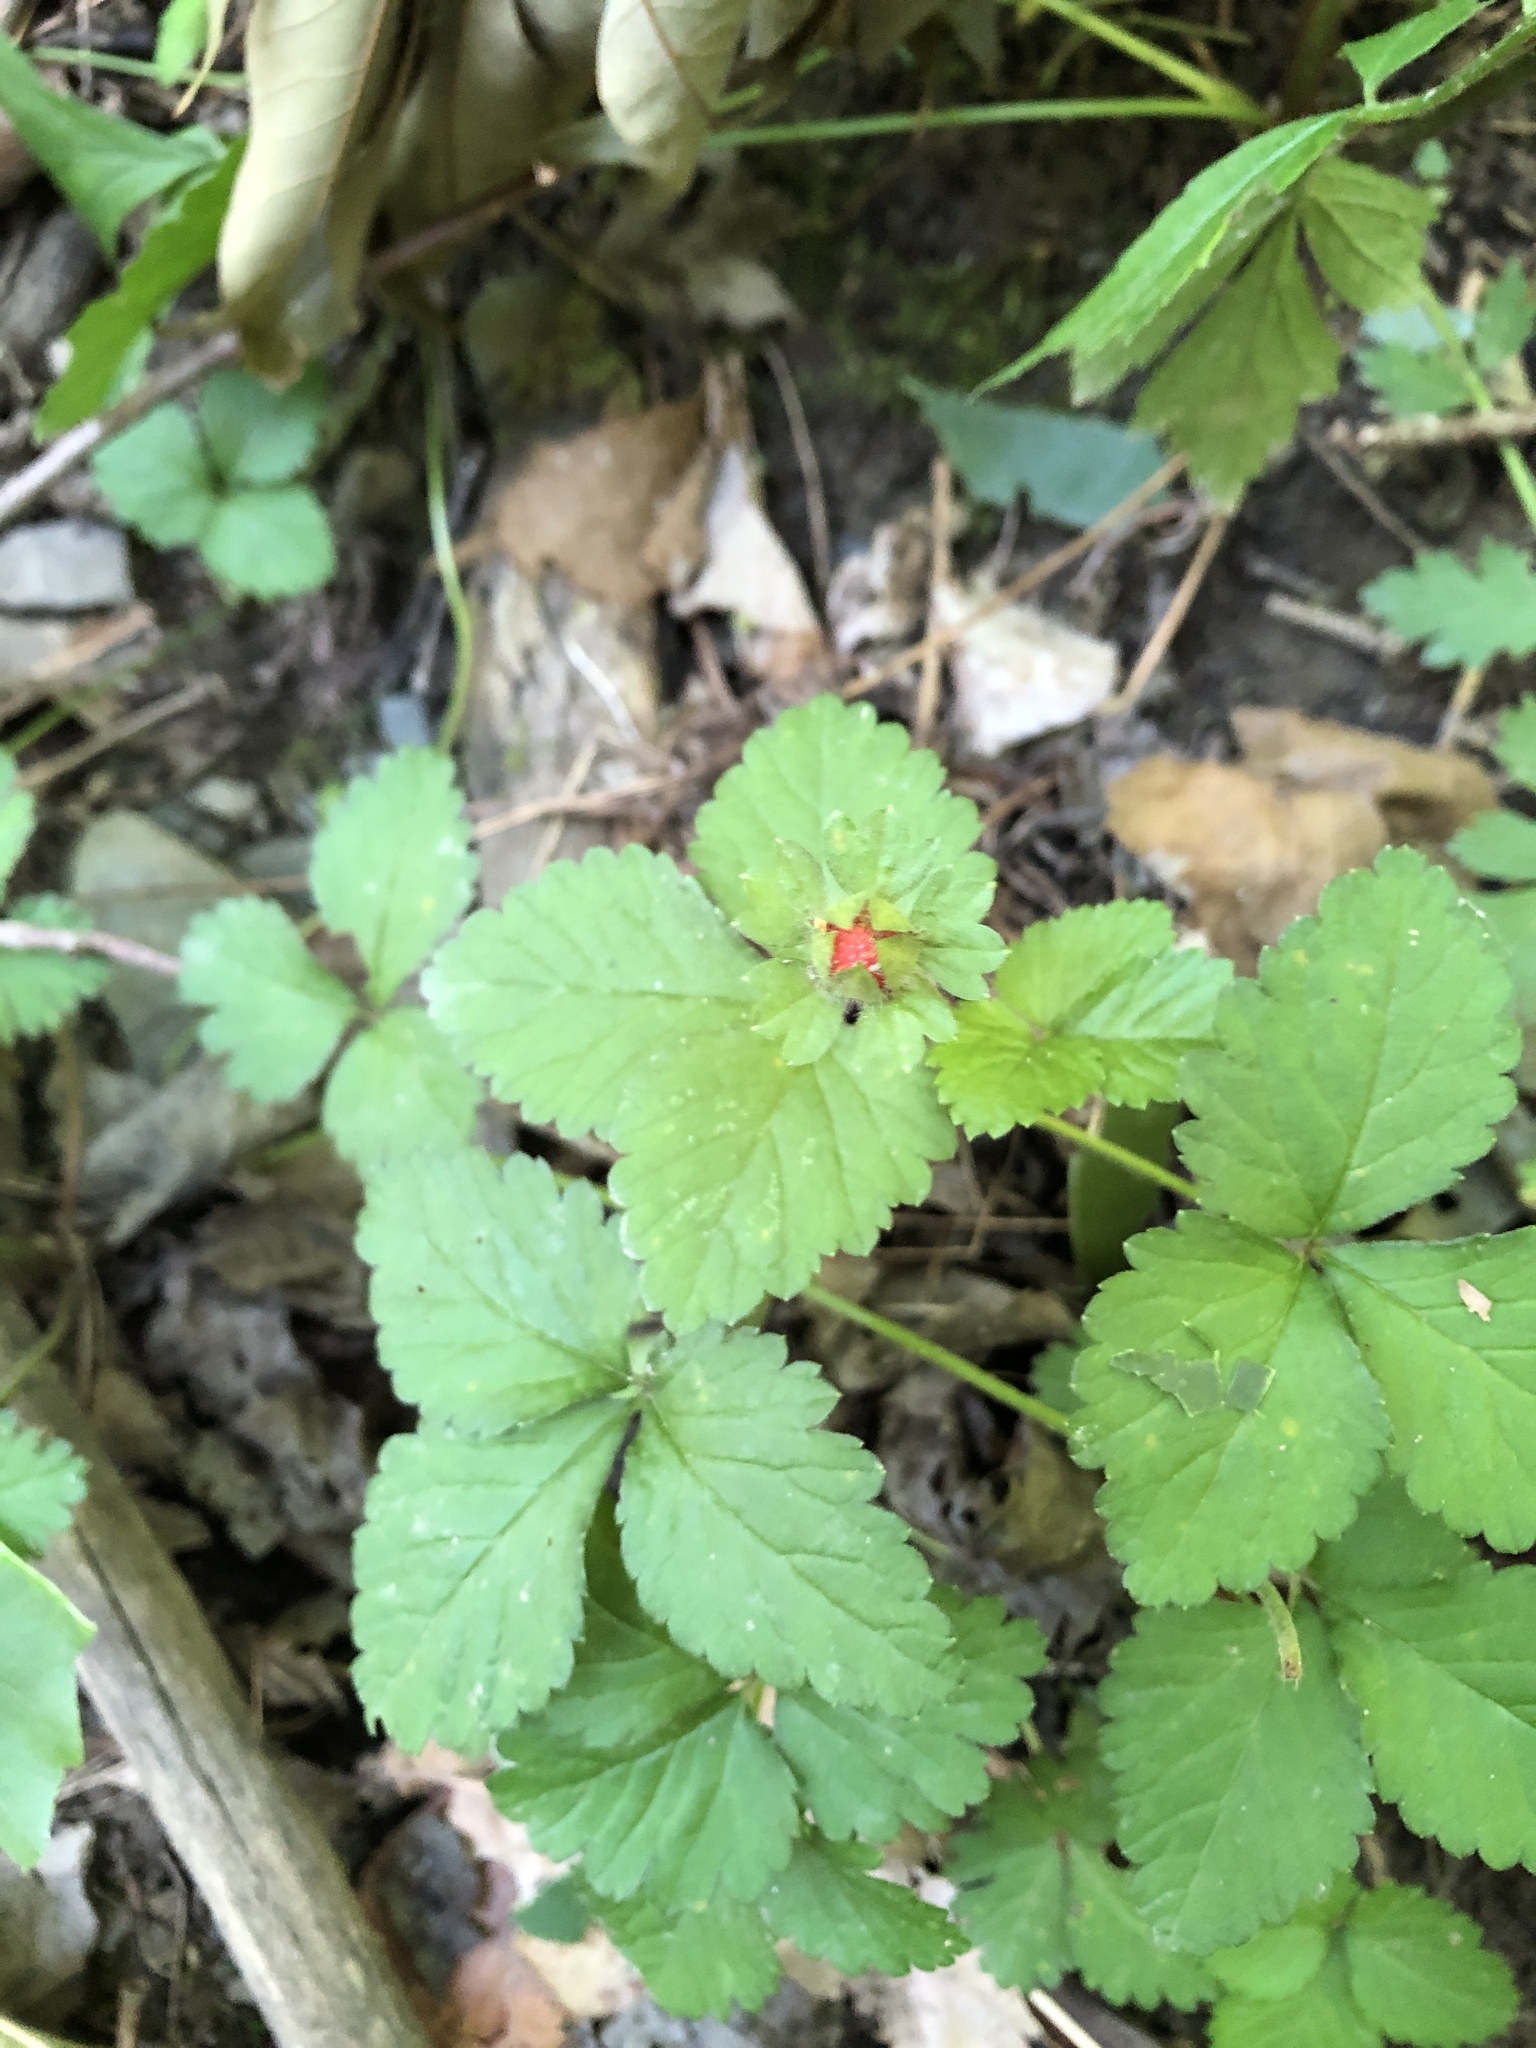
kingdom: Plantae
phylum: Tracheophyta
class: Magnoliopsida
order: Rosales
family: Rosaceae
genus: Potentilla
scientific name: Potentilla indica
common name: Yellow-flowered strawberry
